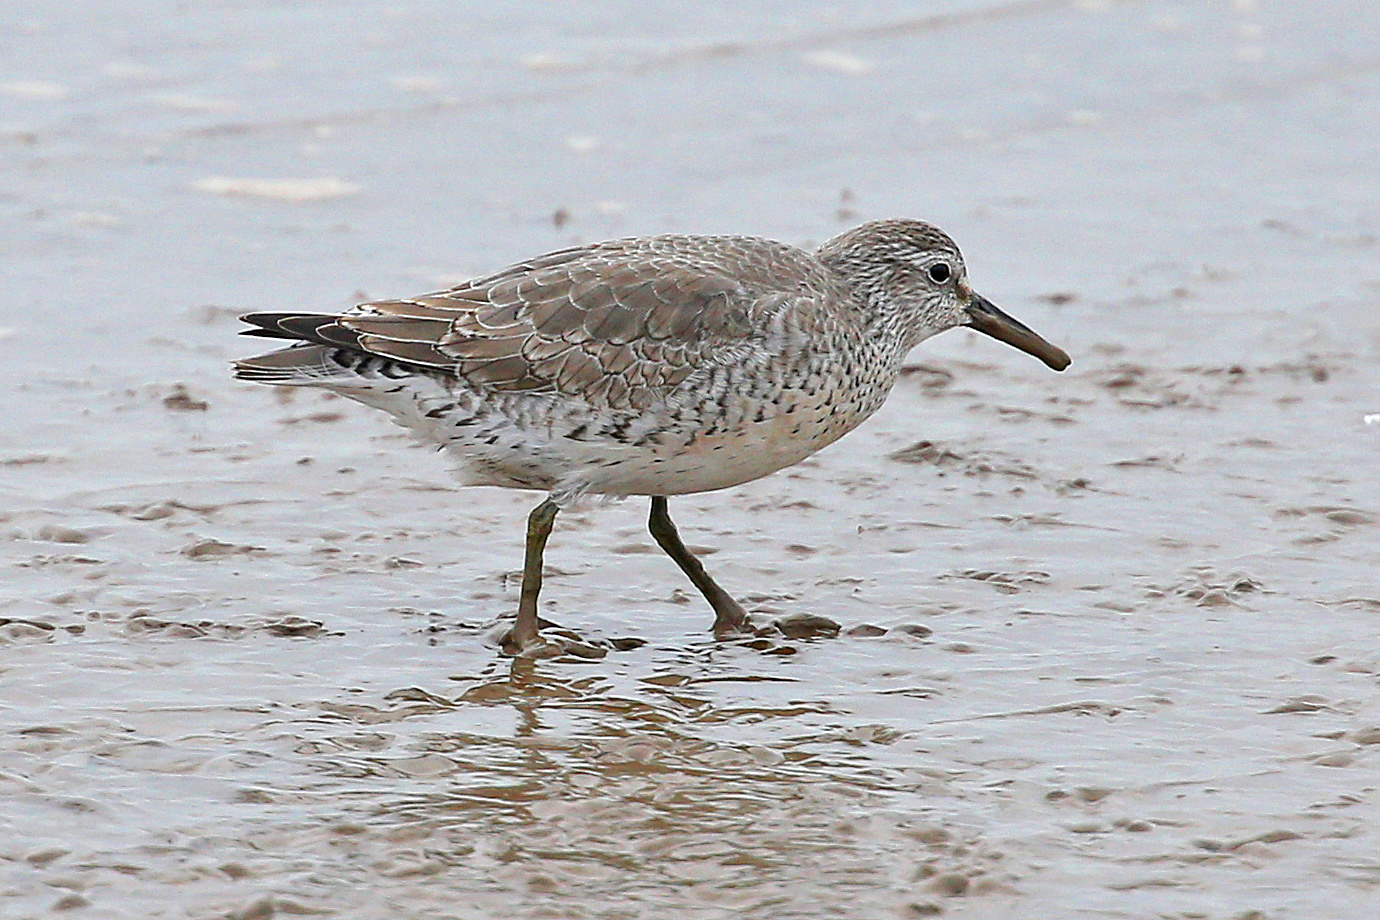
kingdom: Animalia
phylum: Chordata
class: Aves
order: Charadriiformes
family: Scolopacidae
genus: Calidris
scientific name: Calidris canutus
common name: Red knot
